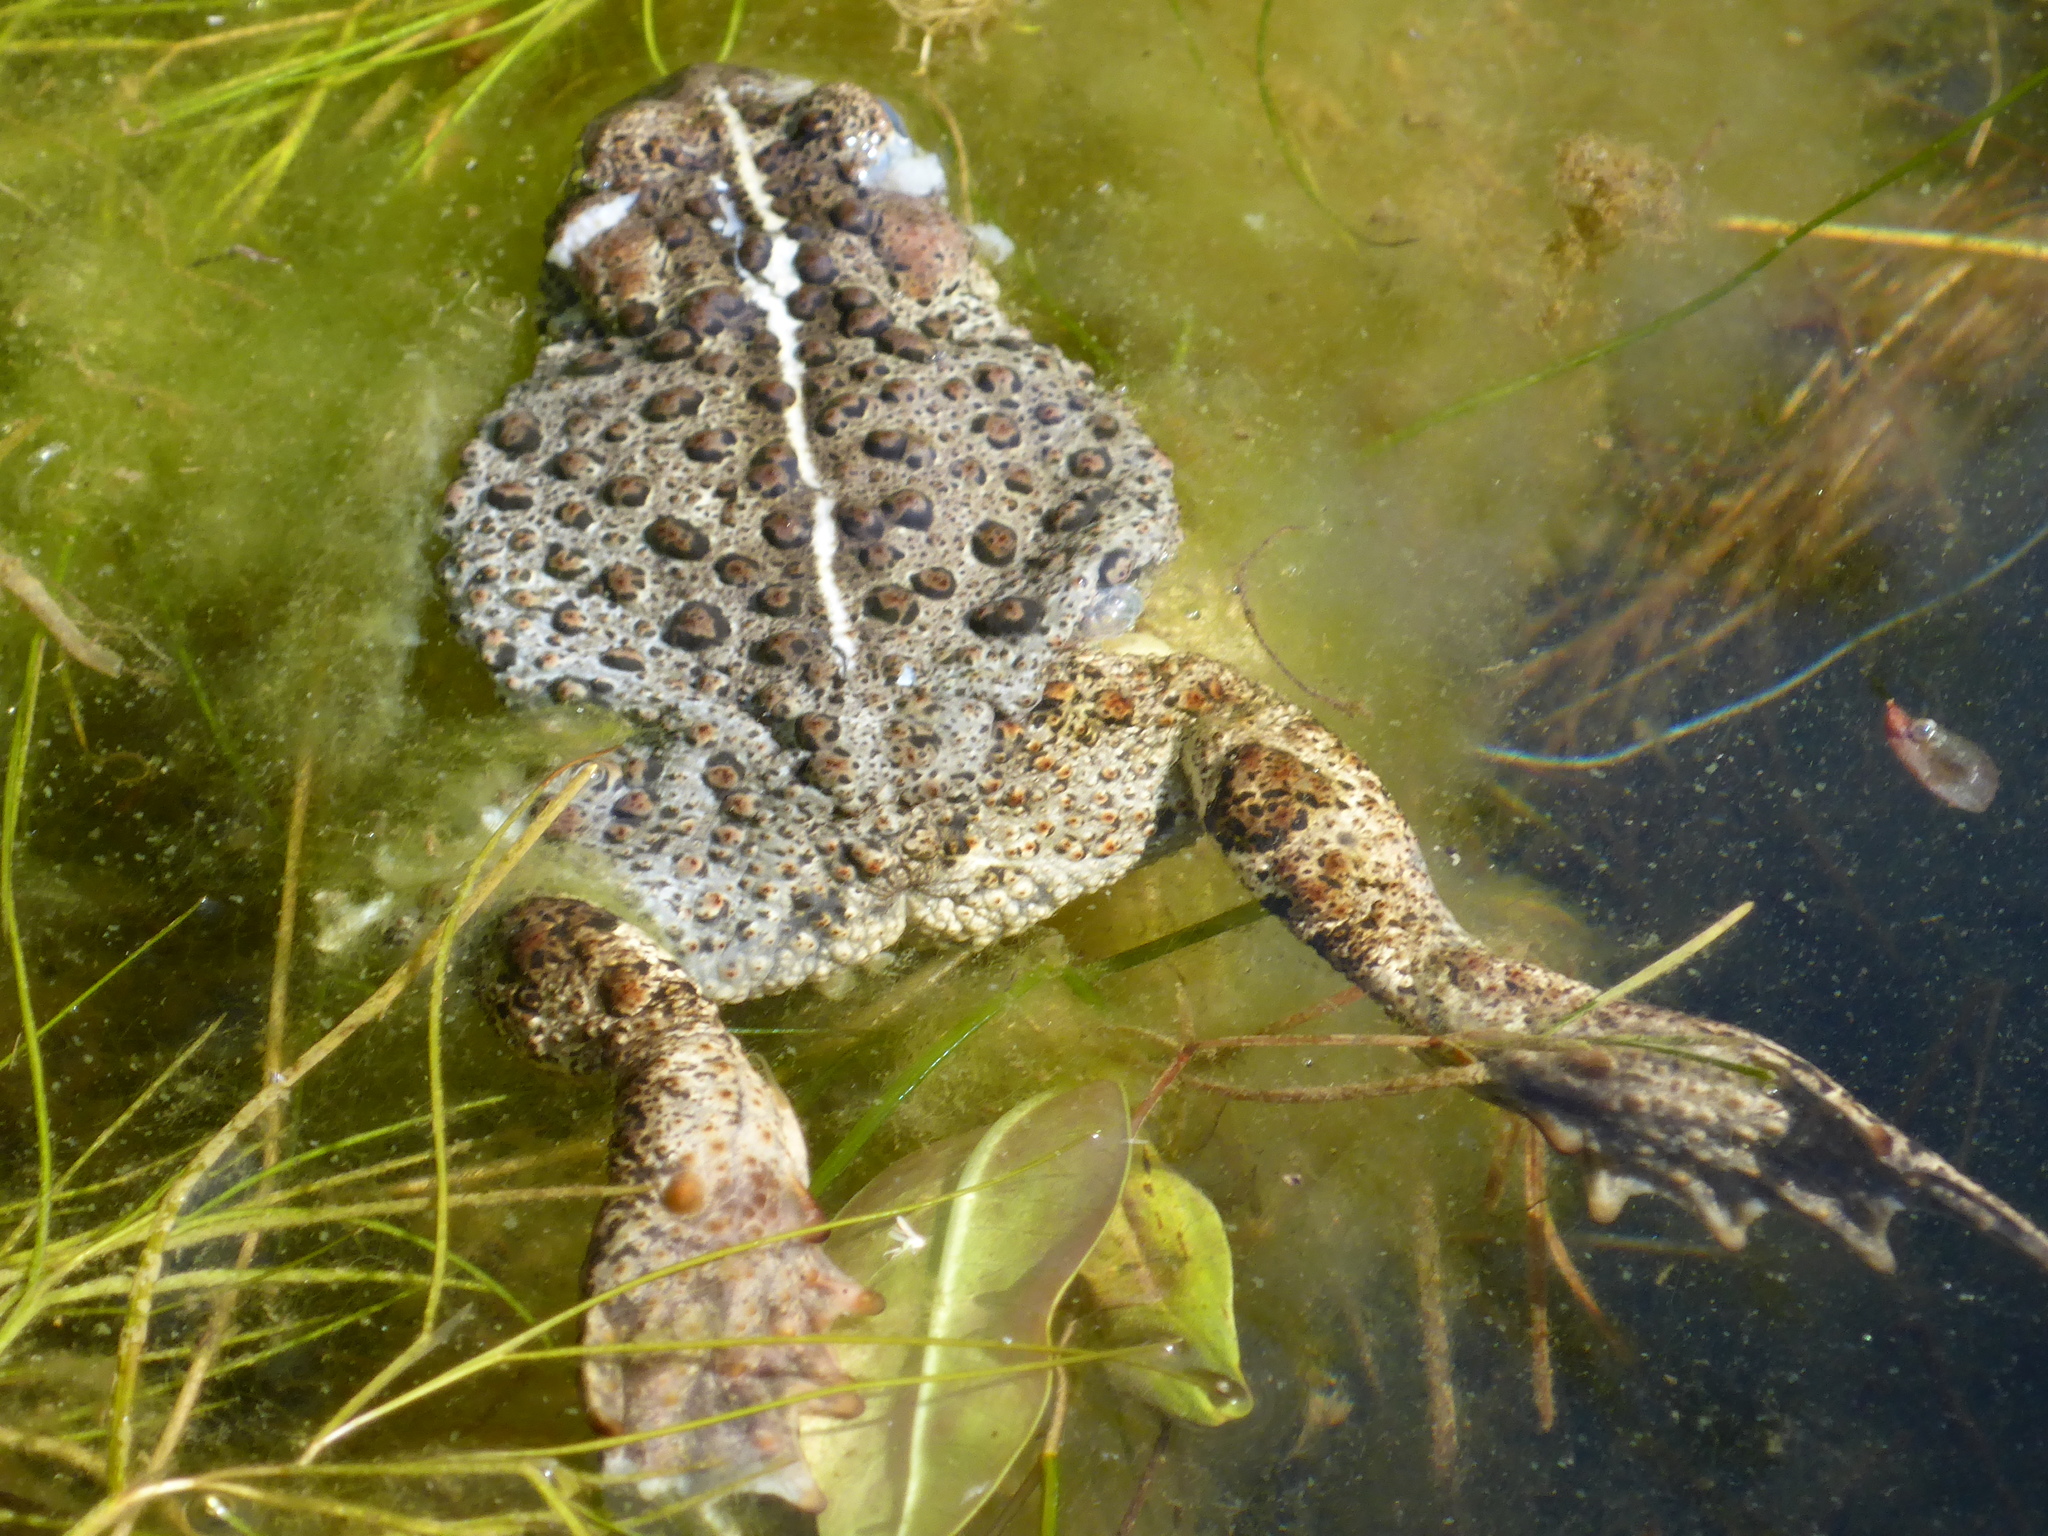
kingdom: Animalia
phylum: Chordata
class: Amphibia
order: Anura
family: Bufonidae
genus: Anaxyrus
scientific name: Anaxyrus boreas
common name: Western toad
